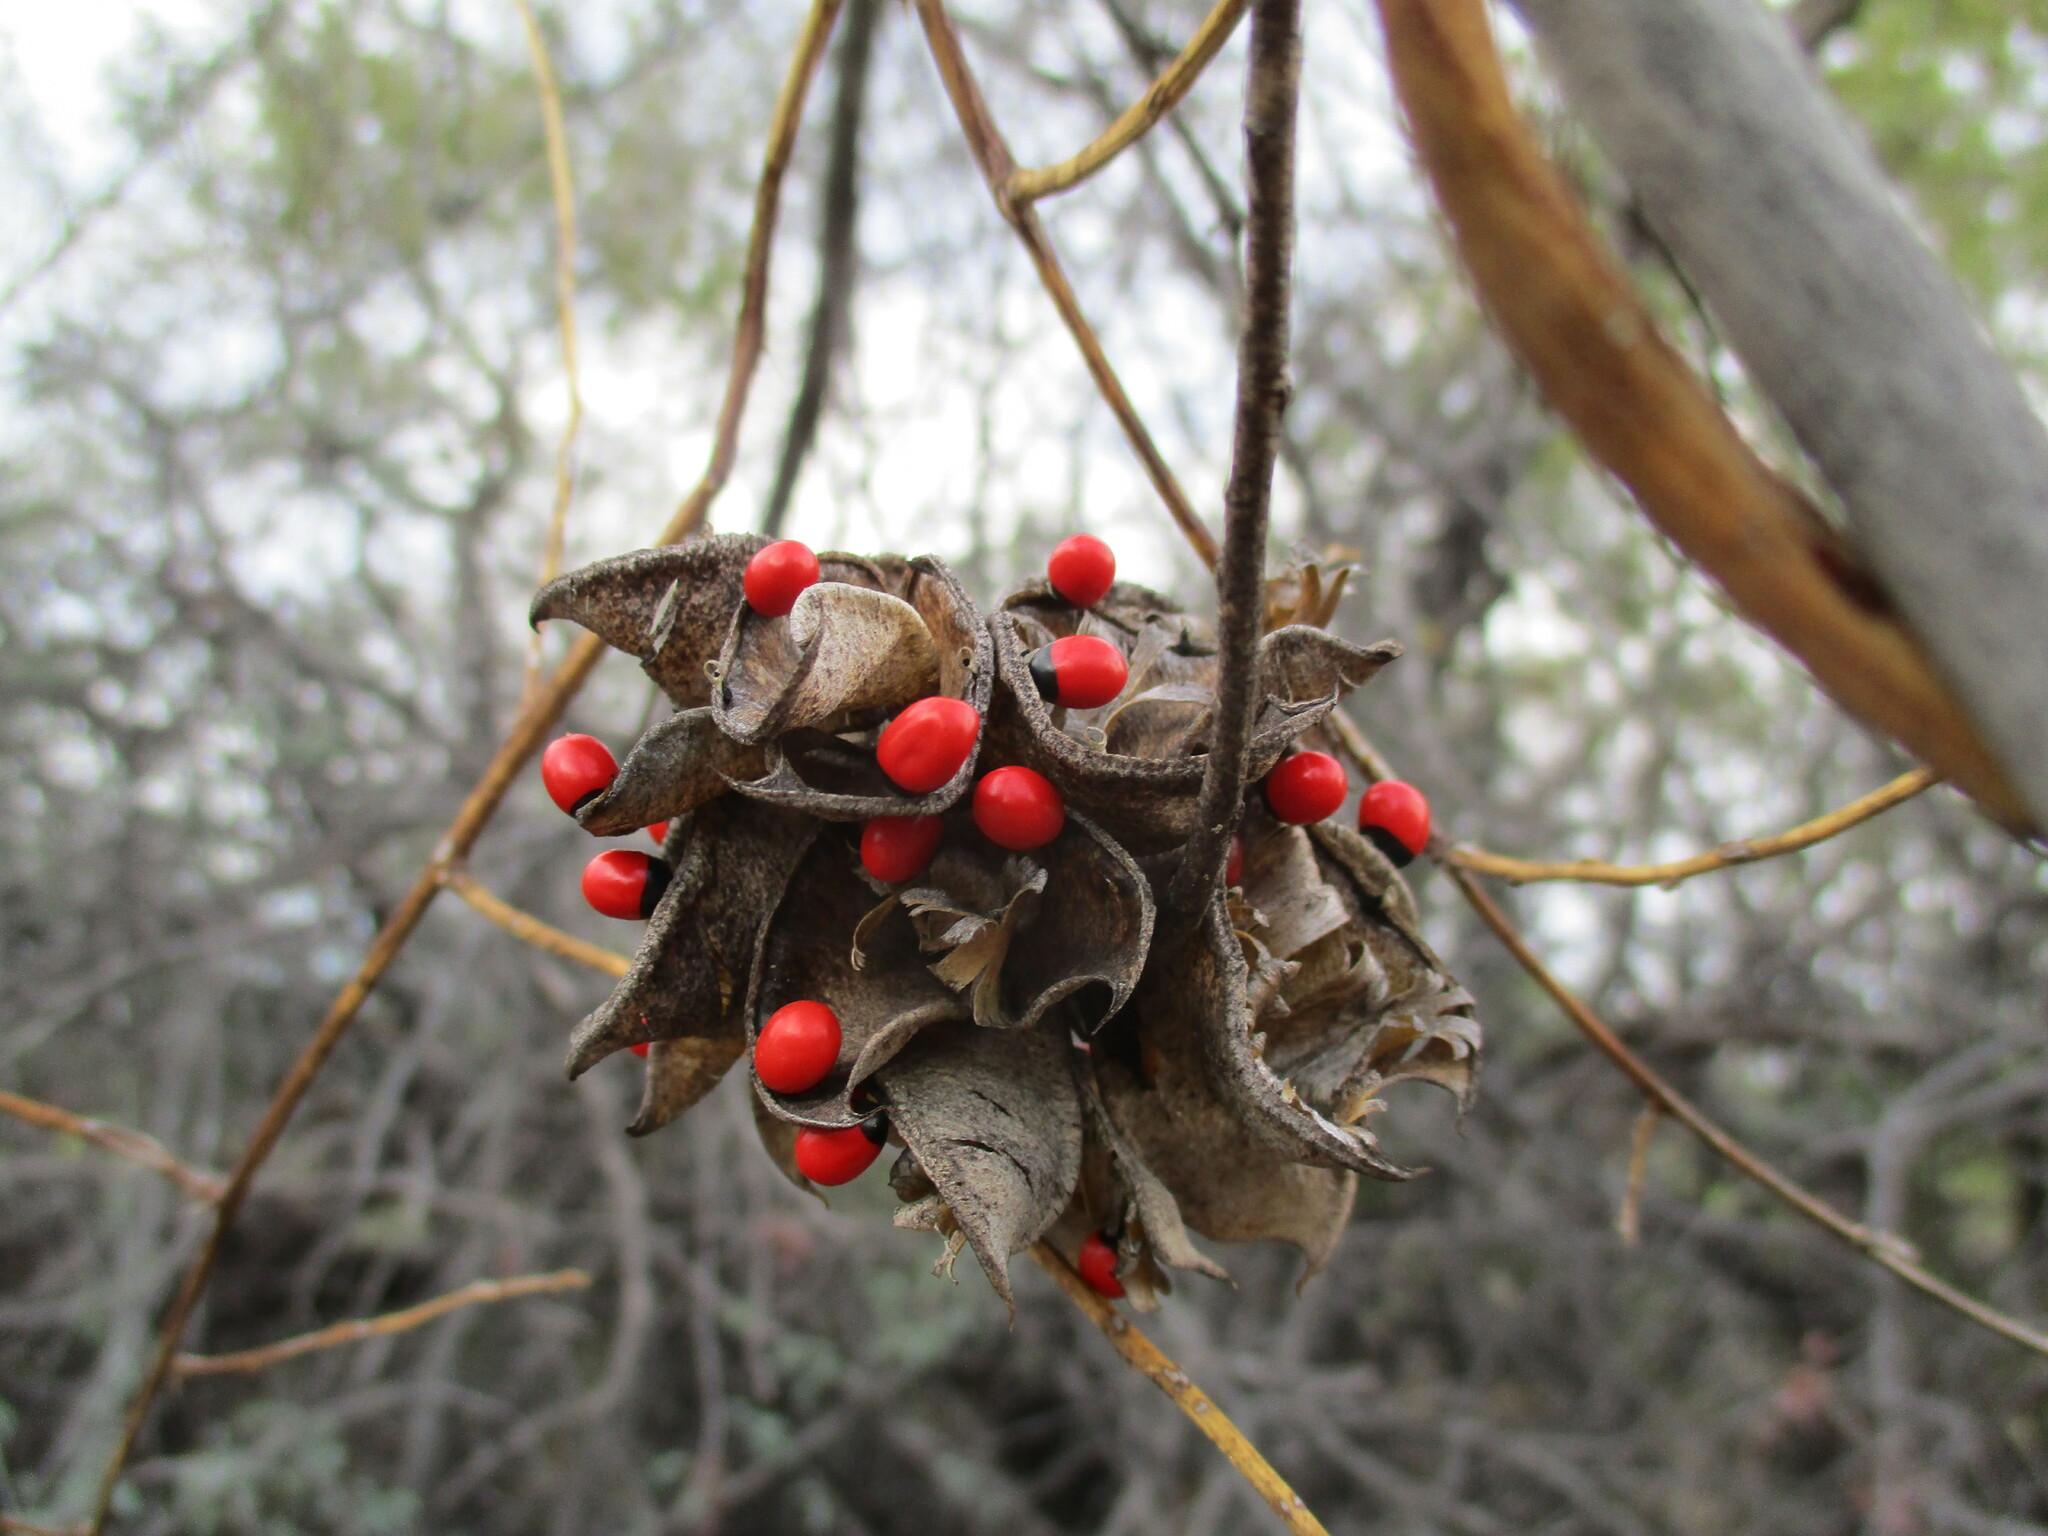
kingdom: Plantae
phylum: Tracheophyta
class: Magnoliopsida
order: Fabales
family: Fabaceae
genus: Abrus
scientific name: Abrus precatorius
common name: Rosarypea
